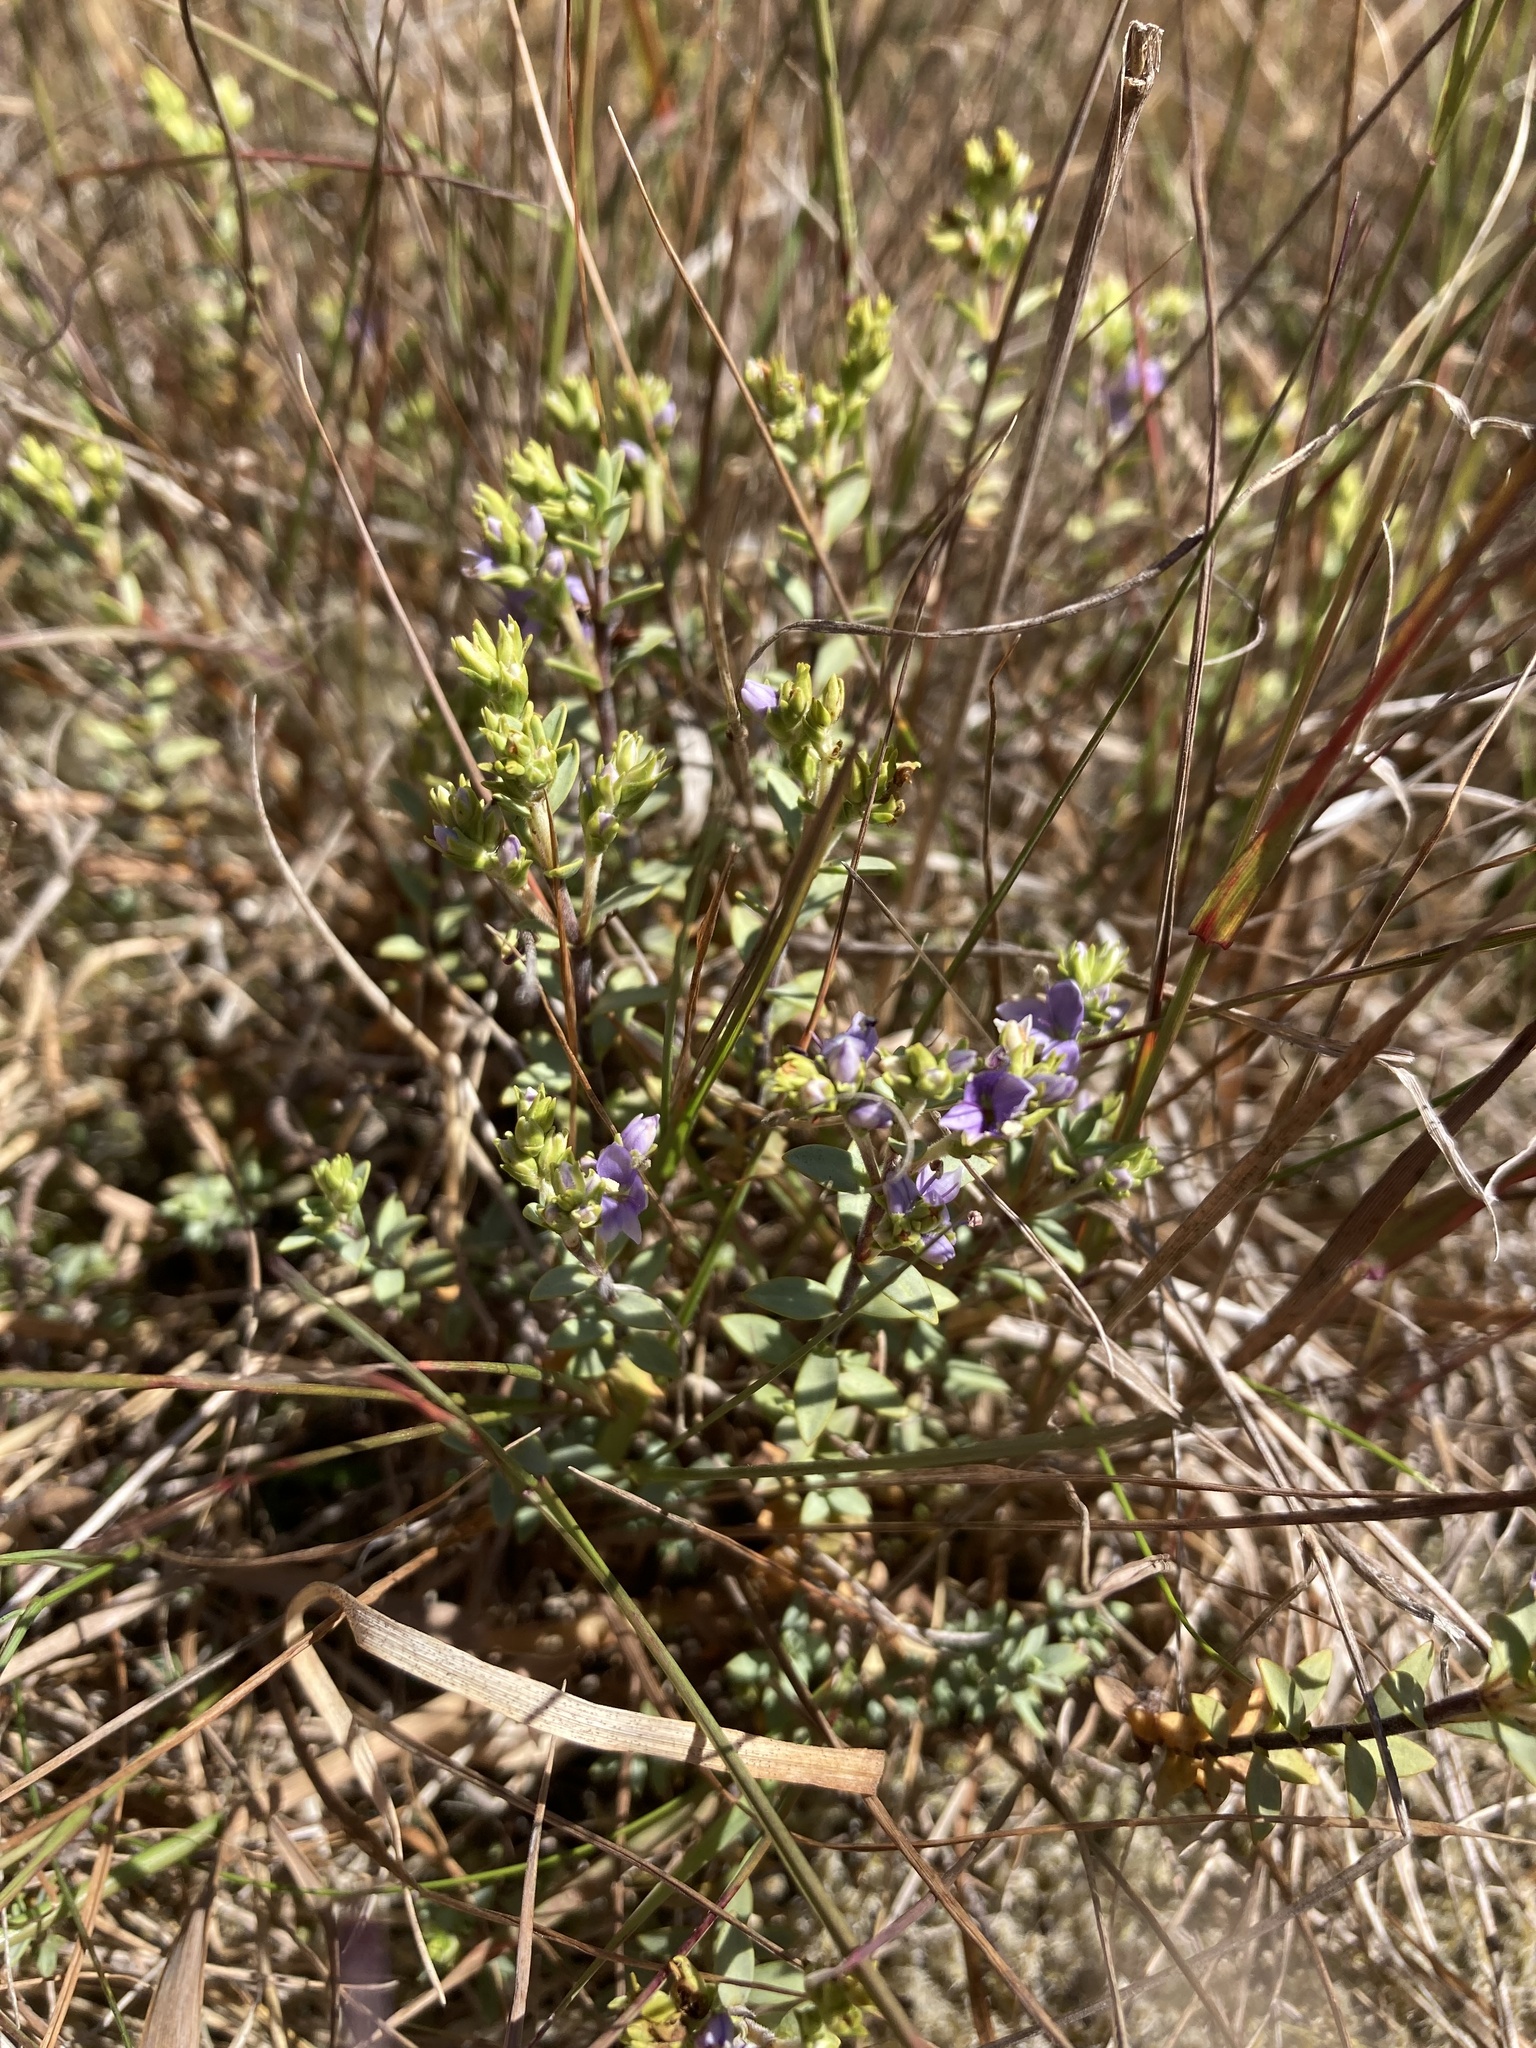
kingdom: Plantae
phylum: Tracheophyta
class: Magnoliopsida
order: Lamiales
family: Plantaginaceae
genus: Veronica
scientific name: Veronica pimeleoides
